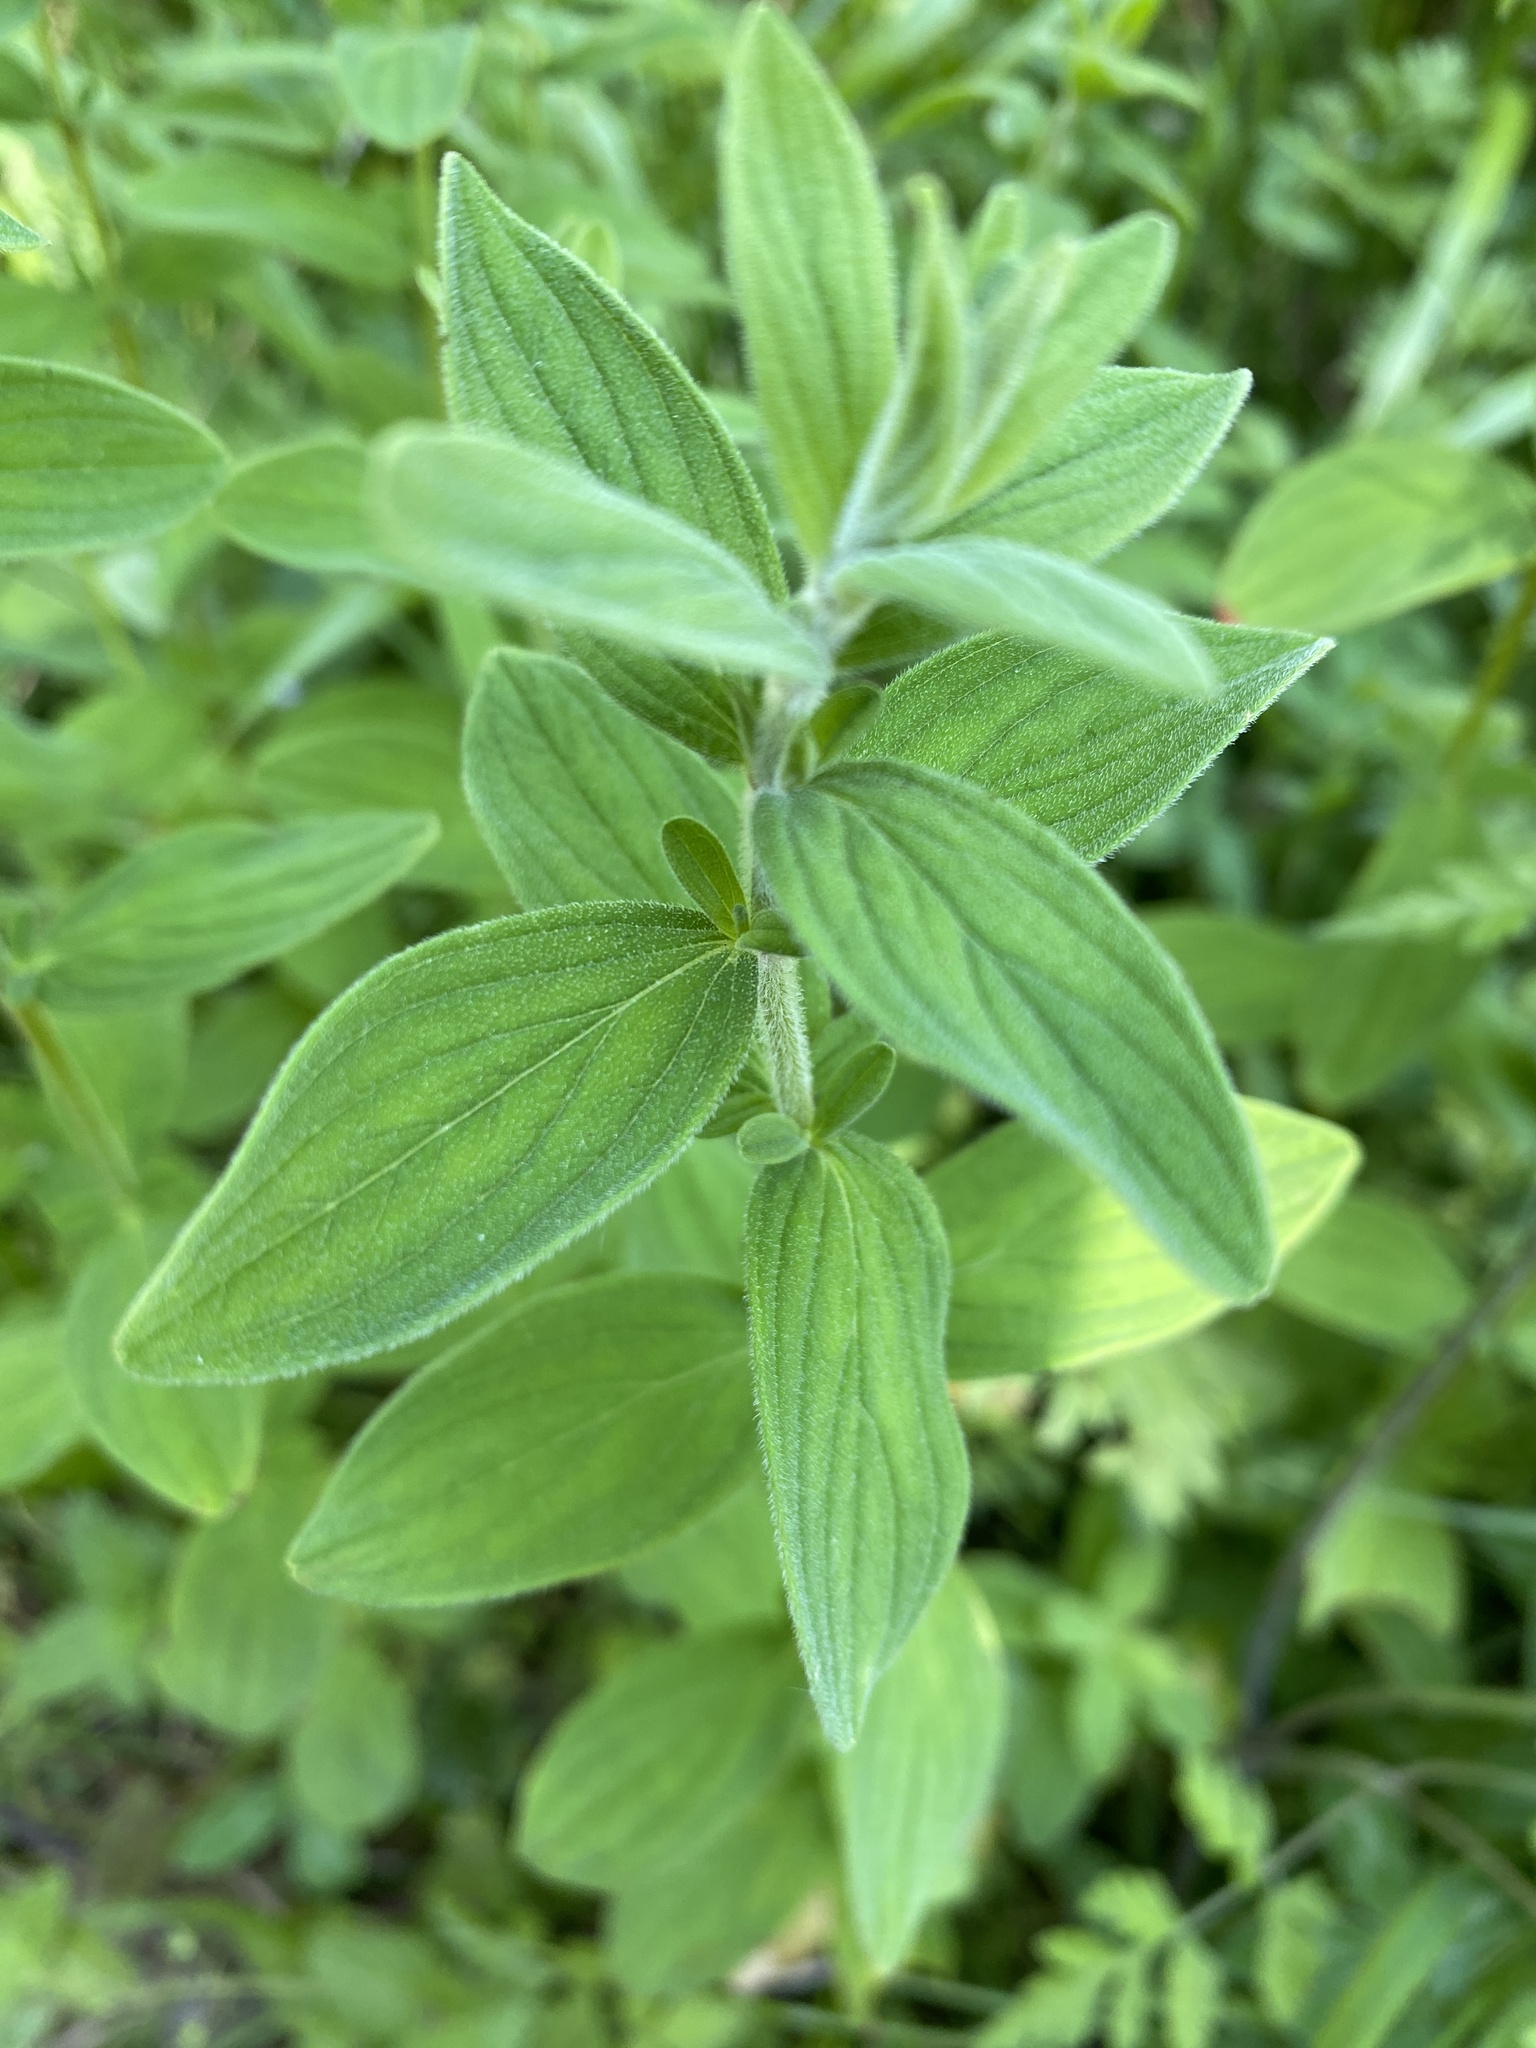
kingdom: Plantae
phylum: Tracheophyta
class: Magnoliopsida
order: Malpighiales
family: Hypericaceae
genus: Hypericum
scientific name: Hypericum hirsutum
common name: Hairy st. john's-wort
